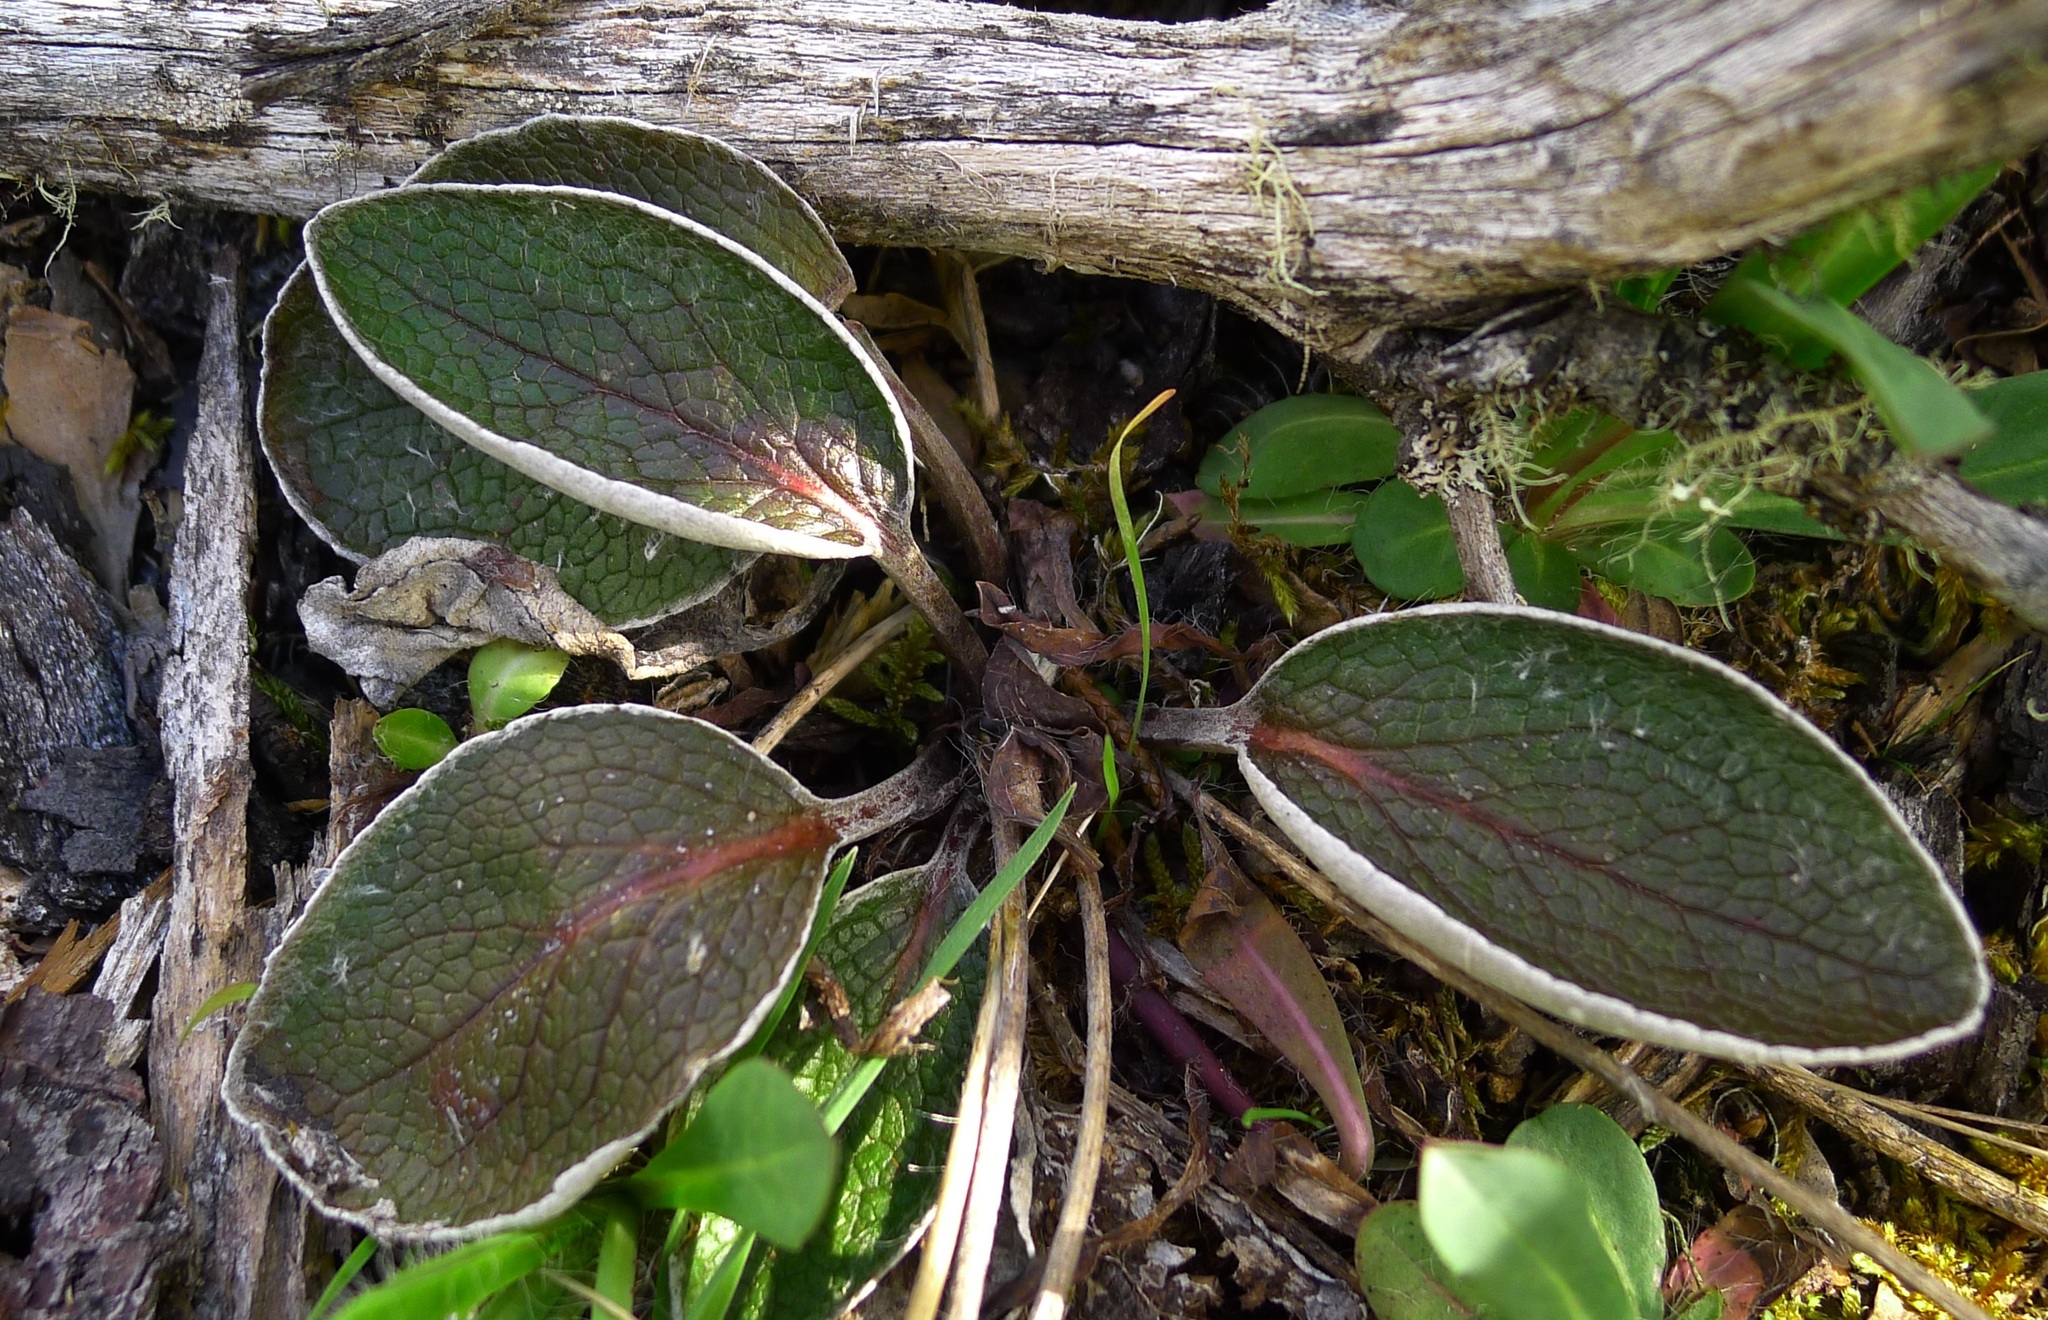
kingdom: Plantae
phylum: Tracheophyta
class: Magnoliopsida
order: Asterales
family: Asteraceae
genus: Brachyglottis
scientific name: Brachyglottis haastii
